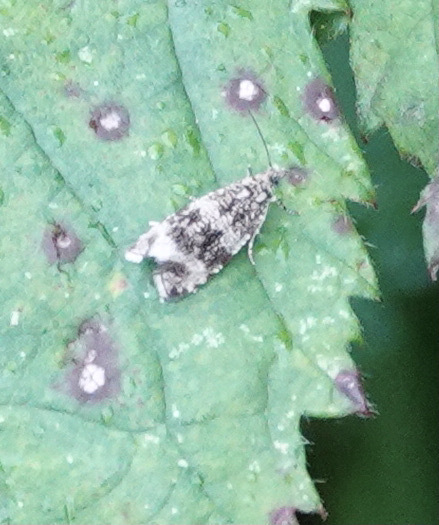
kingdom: Animalia
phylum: Arthropoda
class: Insecta
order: Lepidoptera
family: Tortricidae
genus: Syricoris
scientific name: Syricoris lacunana
